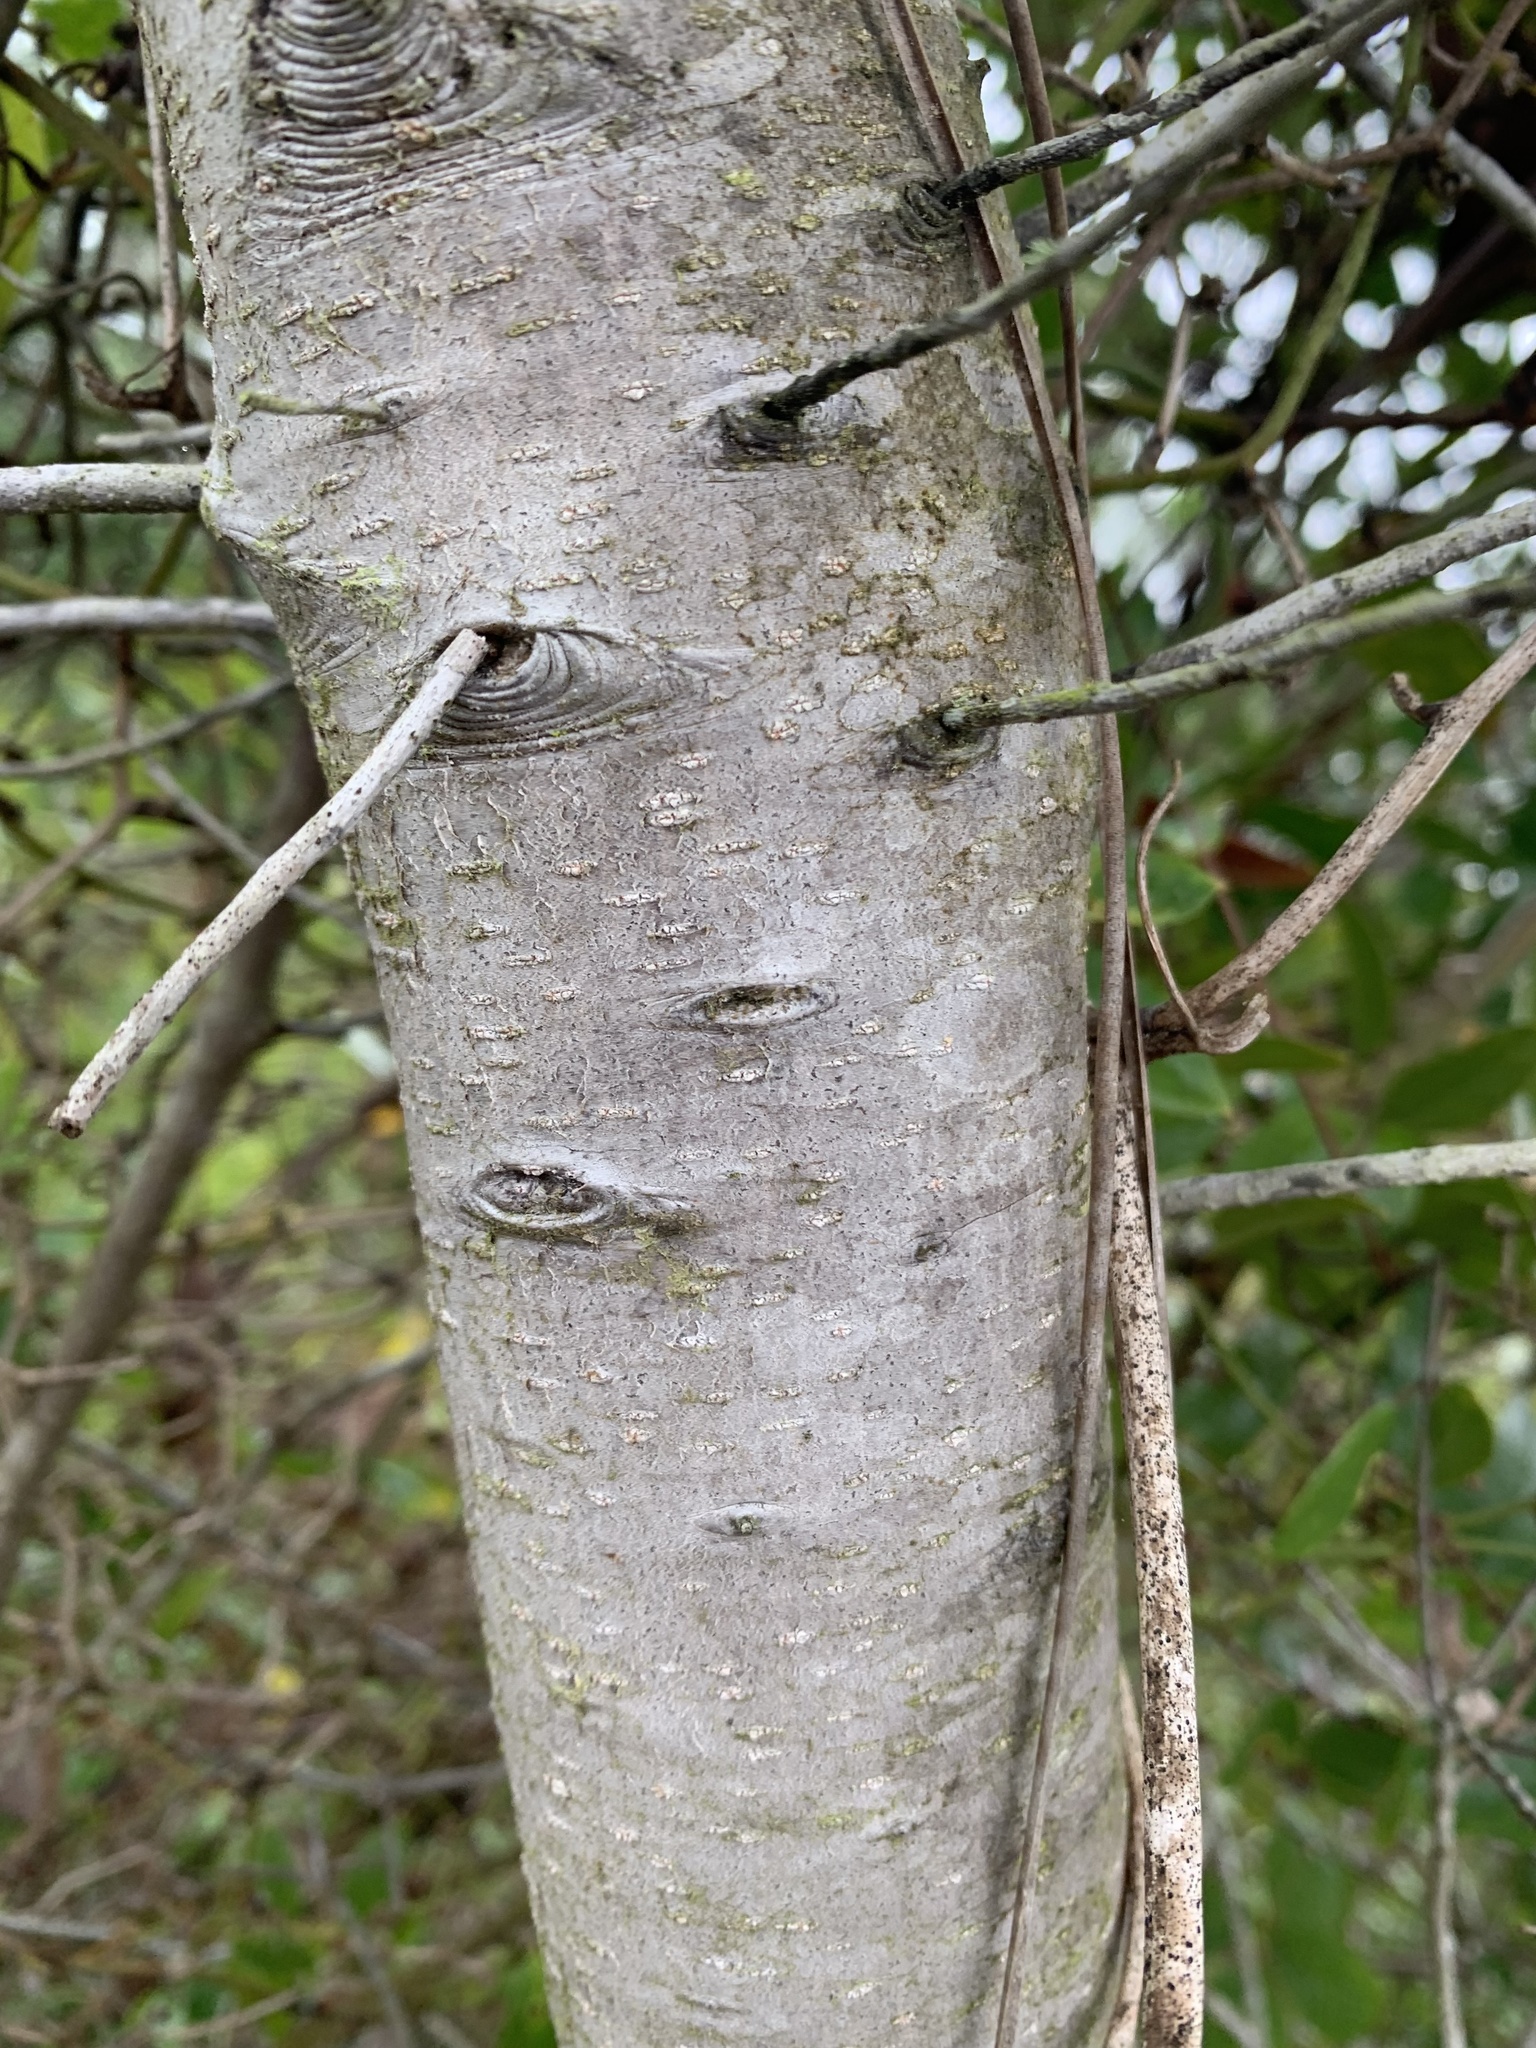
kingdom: Plantae
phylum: Tracheophyta
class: Magnoliopsida
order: Fagales
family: Myricaceae
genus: Morella
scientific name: Morella cerifera
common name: Wax myrtle
